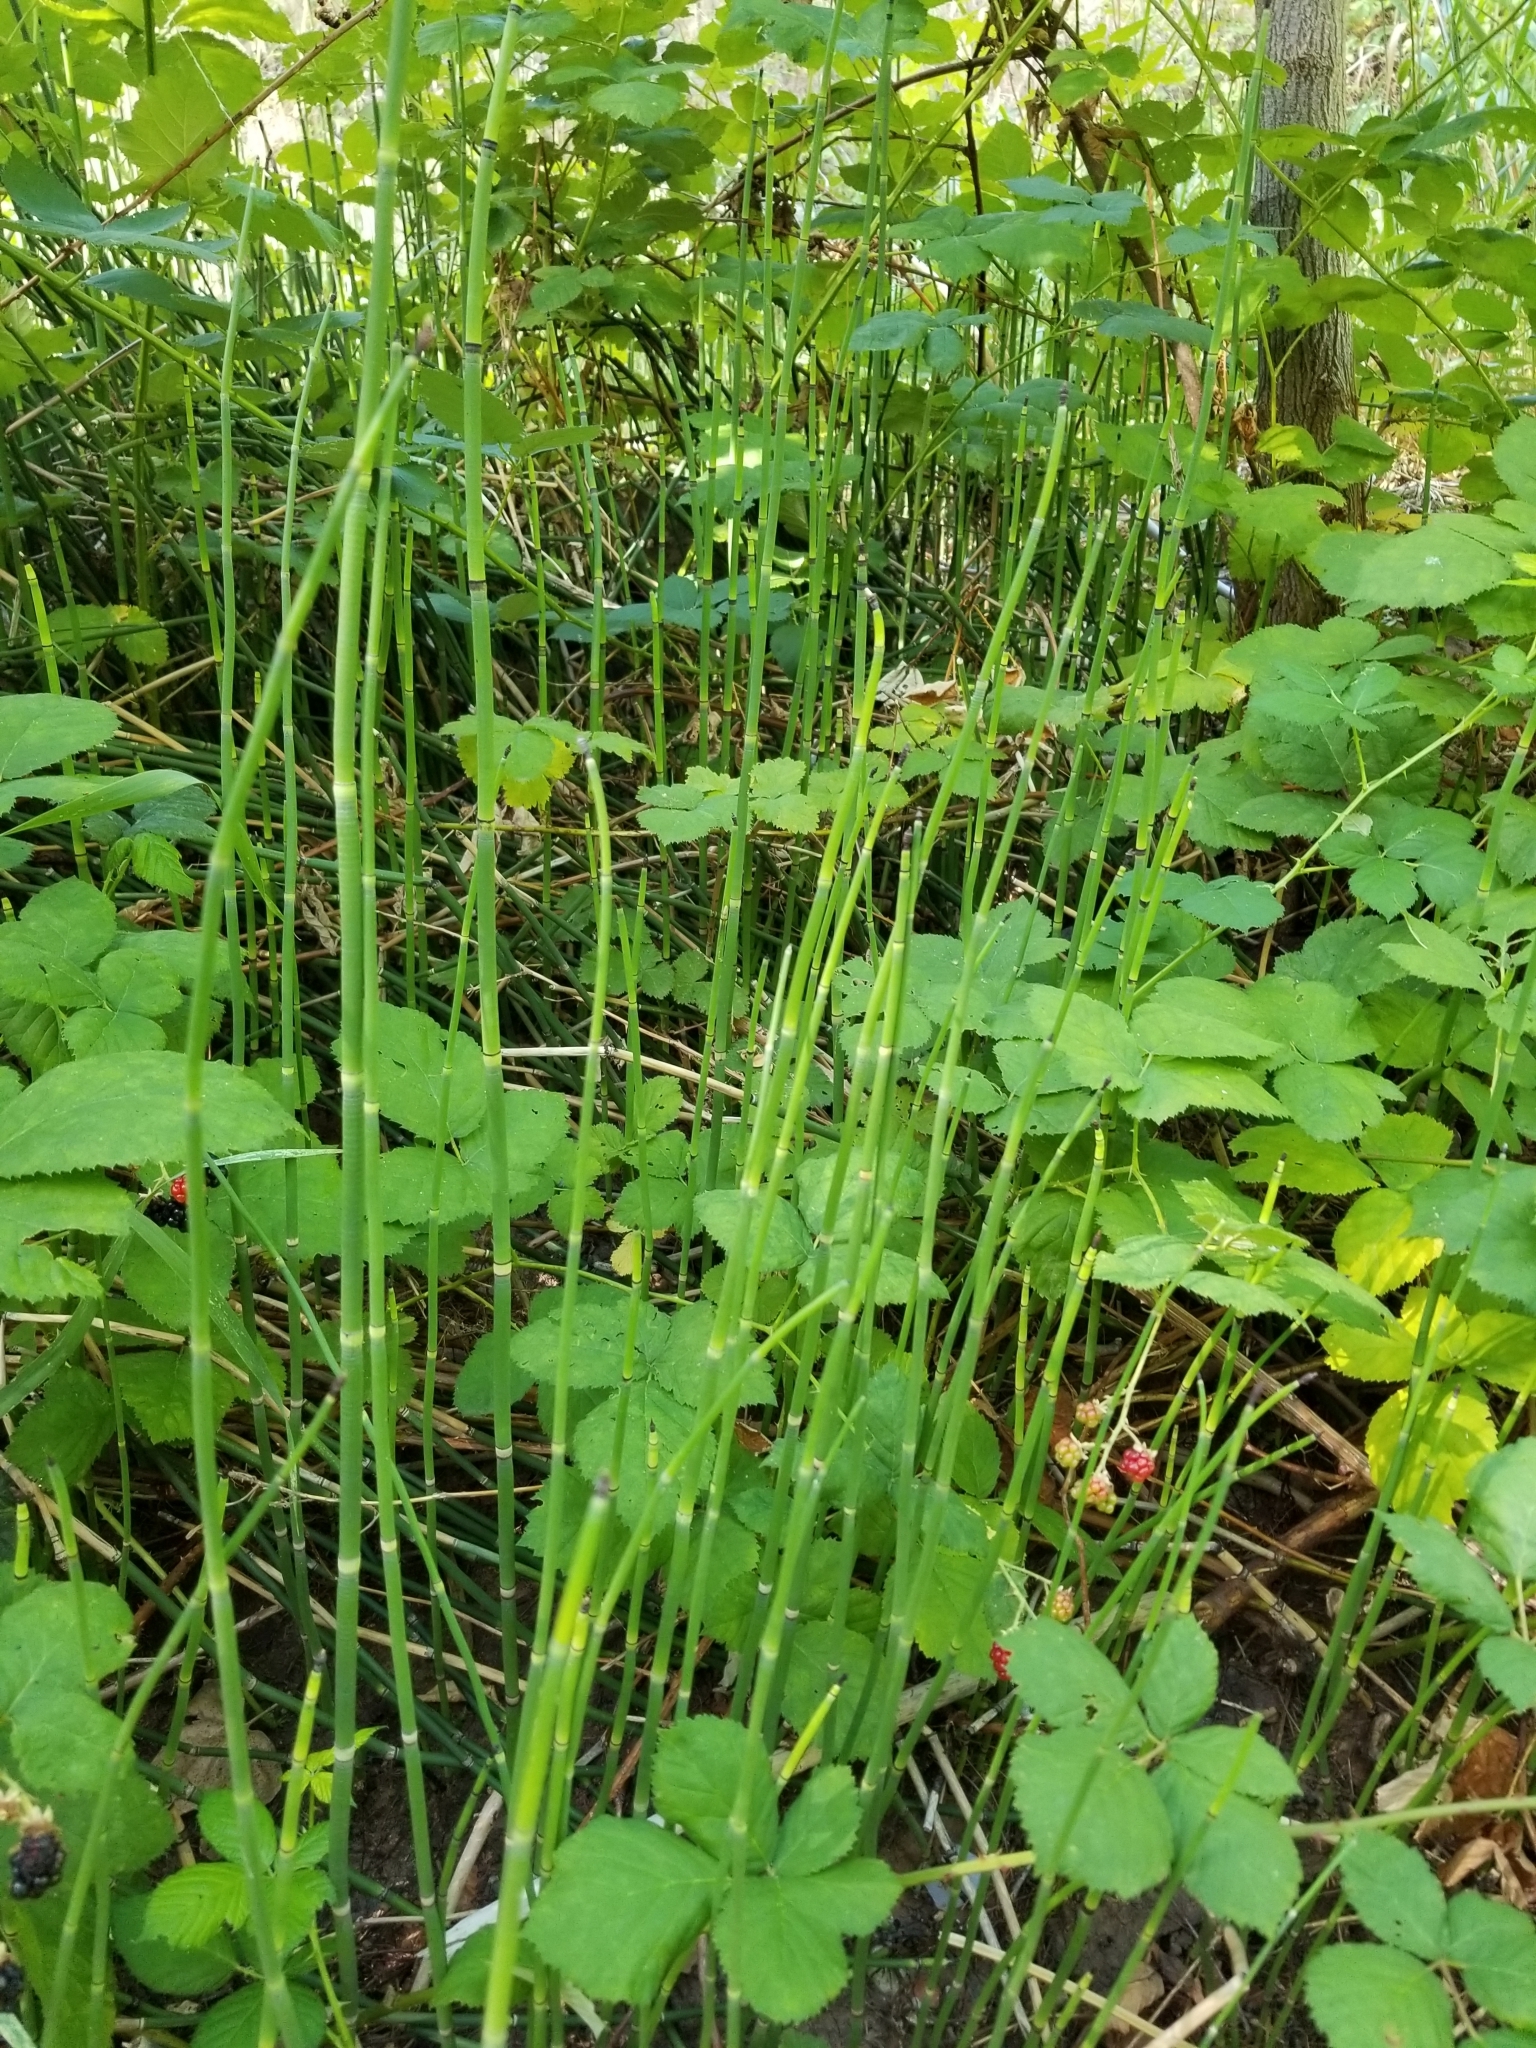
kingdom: Plantae
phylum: Tracheophyta
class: Polypodiopsida
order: Equisetales
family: Equisetaceae
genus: Equisetum
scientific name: Equisetum hyemale
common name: Rough horsetail
